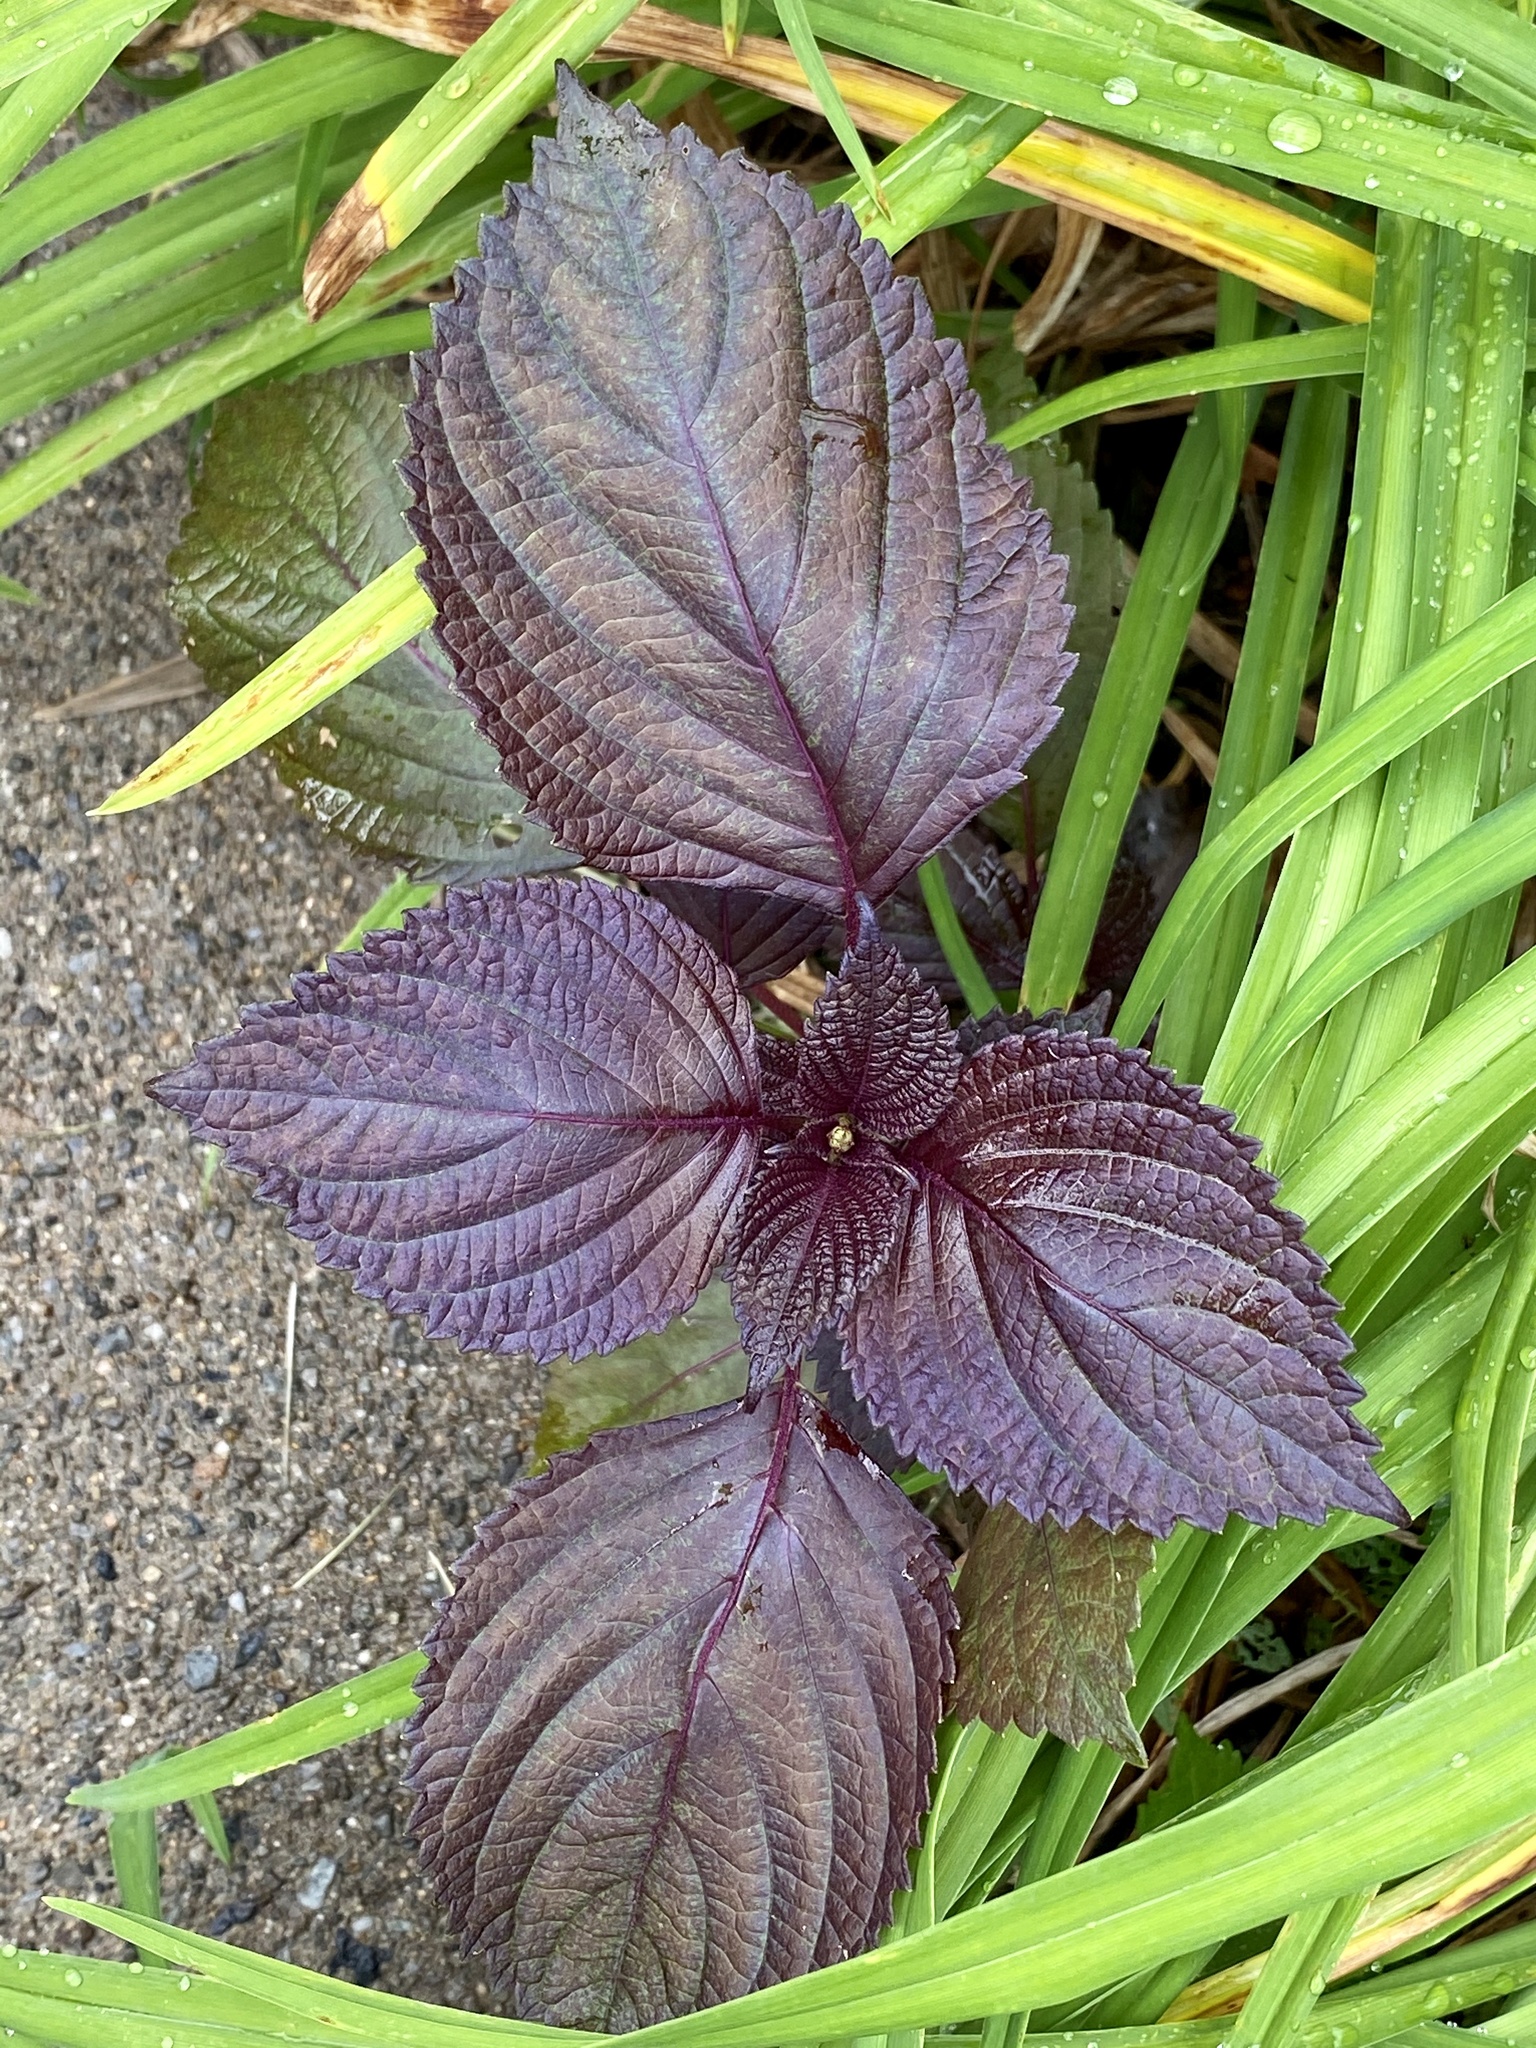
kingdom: Plantae
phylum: Tracheophyta
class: Magnoliopsida
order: Lamiales
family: Lamiaceae
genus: Perilla
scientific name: Perilla frutescens
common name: Perilla
